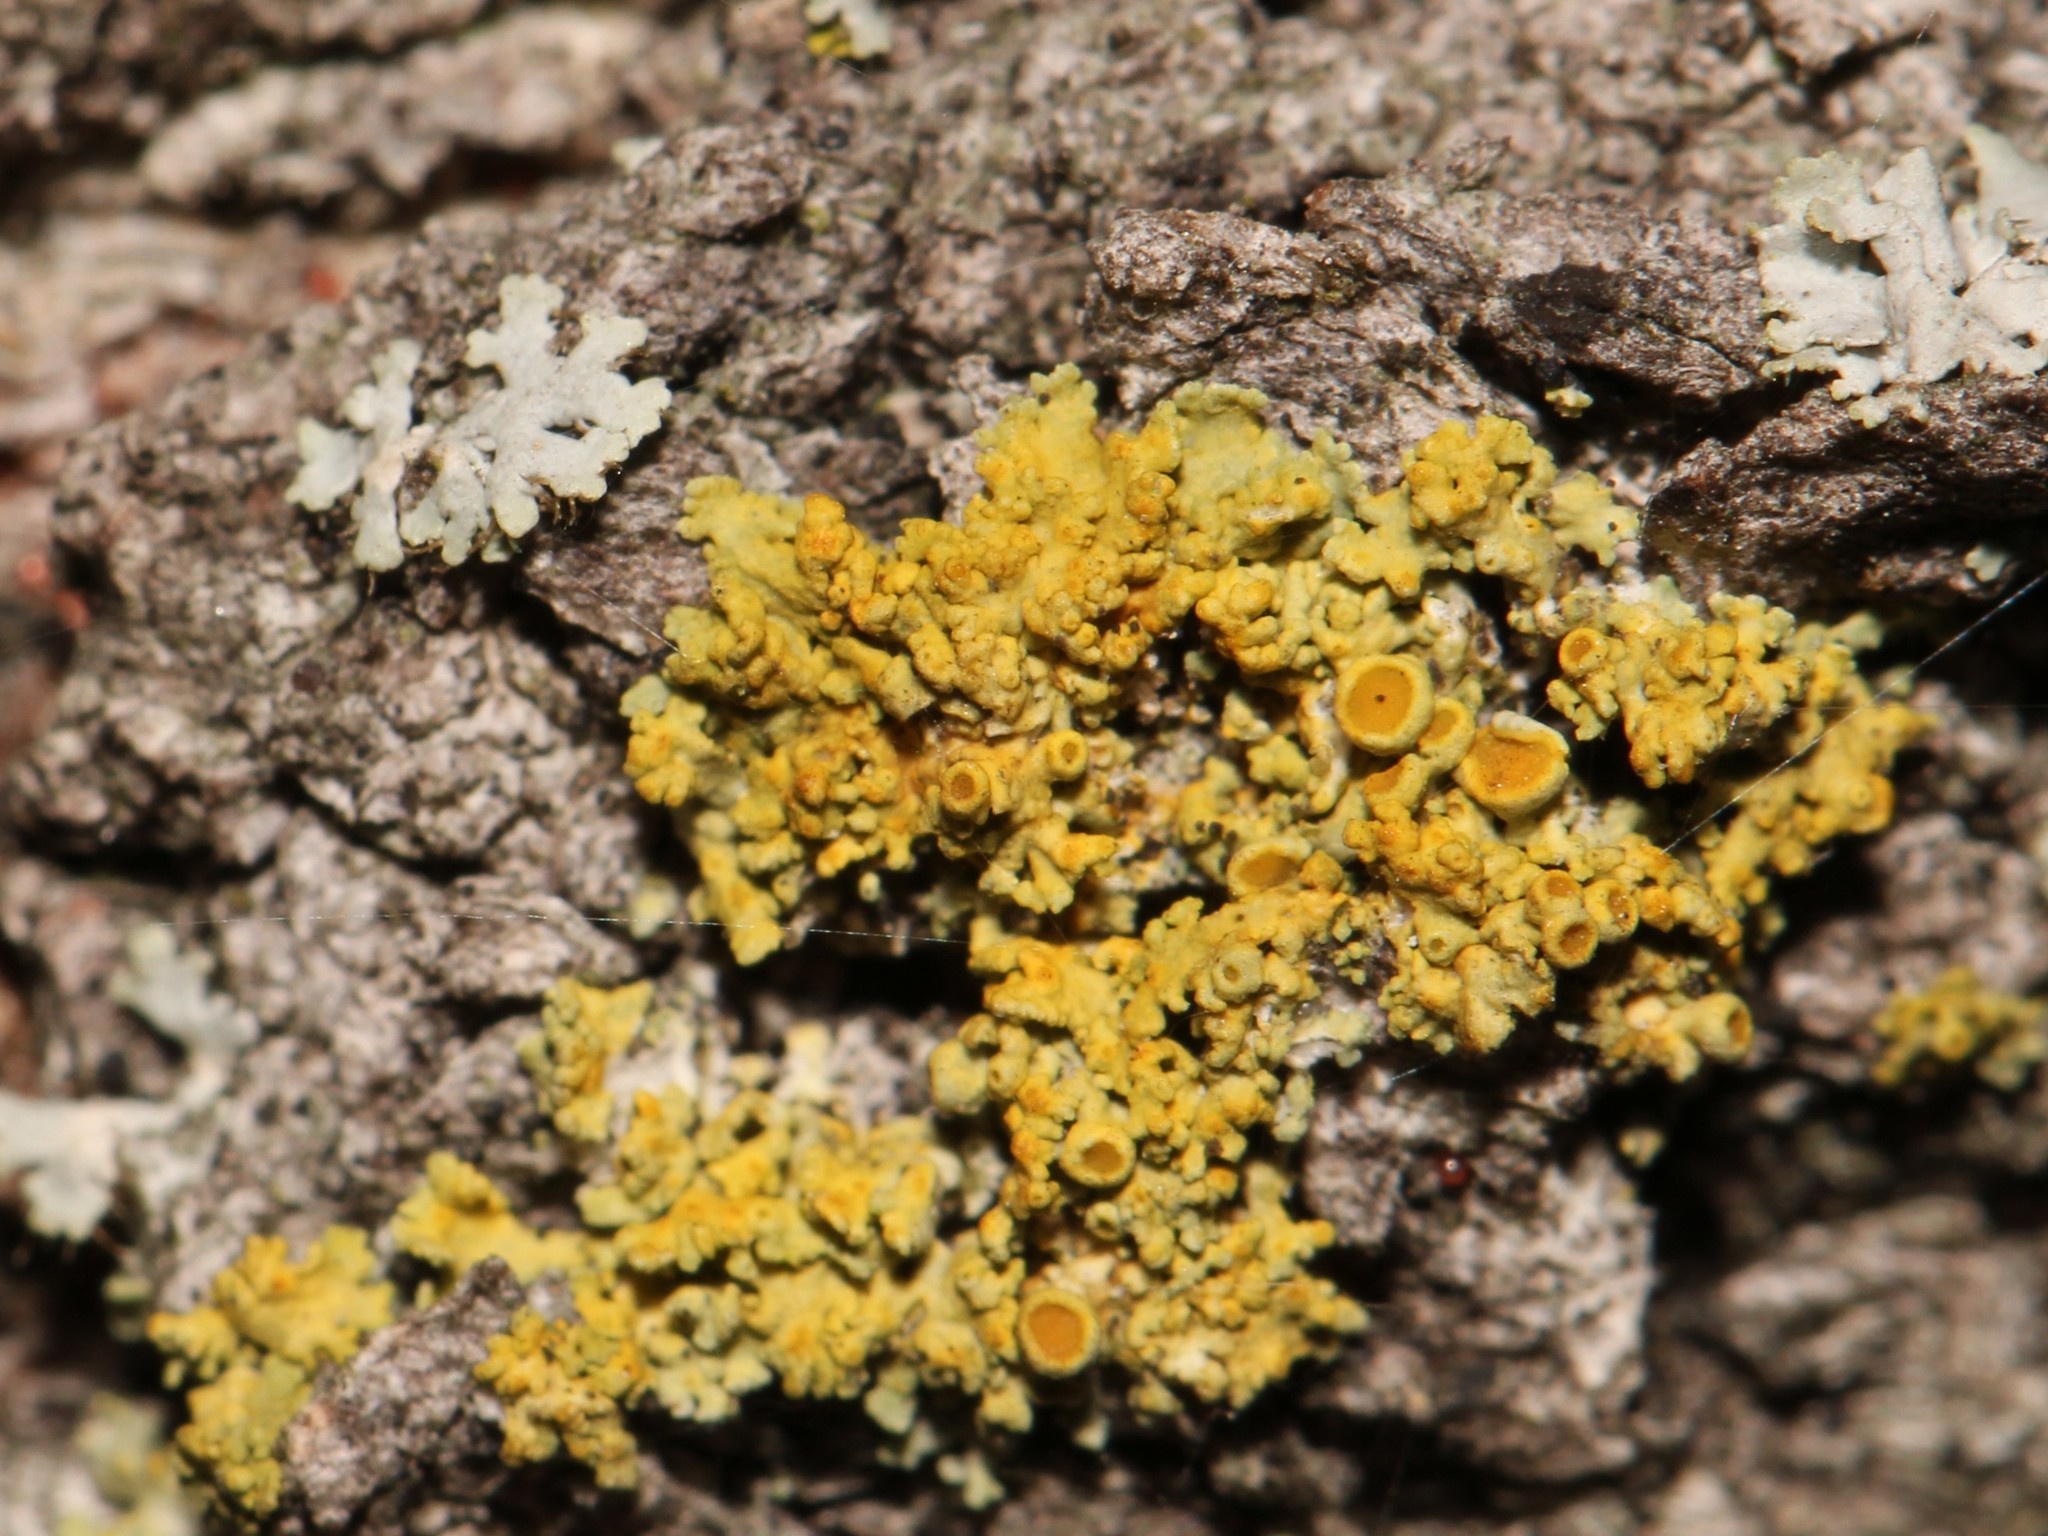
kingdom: Fungi
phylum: Ascomycota
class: Lecanoromycetes
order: Teloschistales
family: Teloschistaceae
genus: Polycauliona
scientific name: Polycauliona polycarpa
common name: Pin-cushion sunburst lichen
